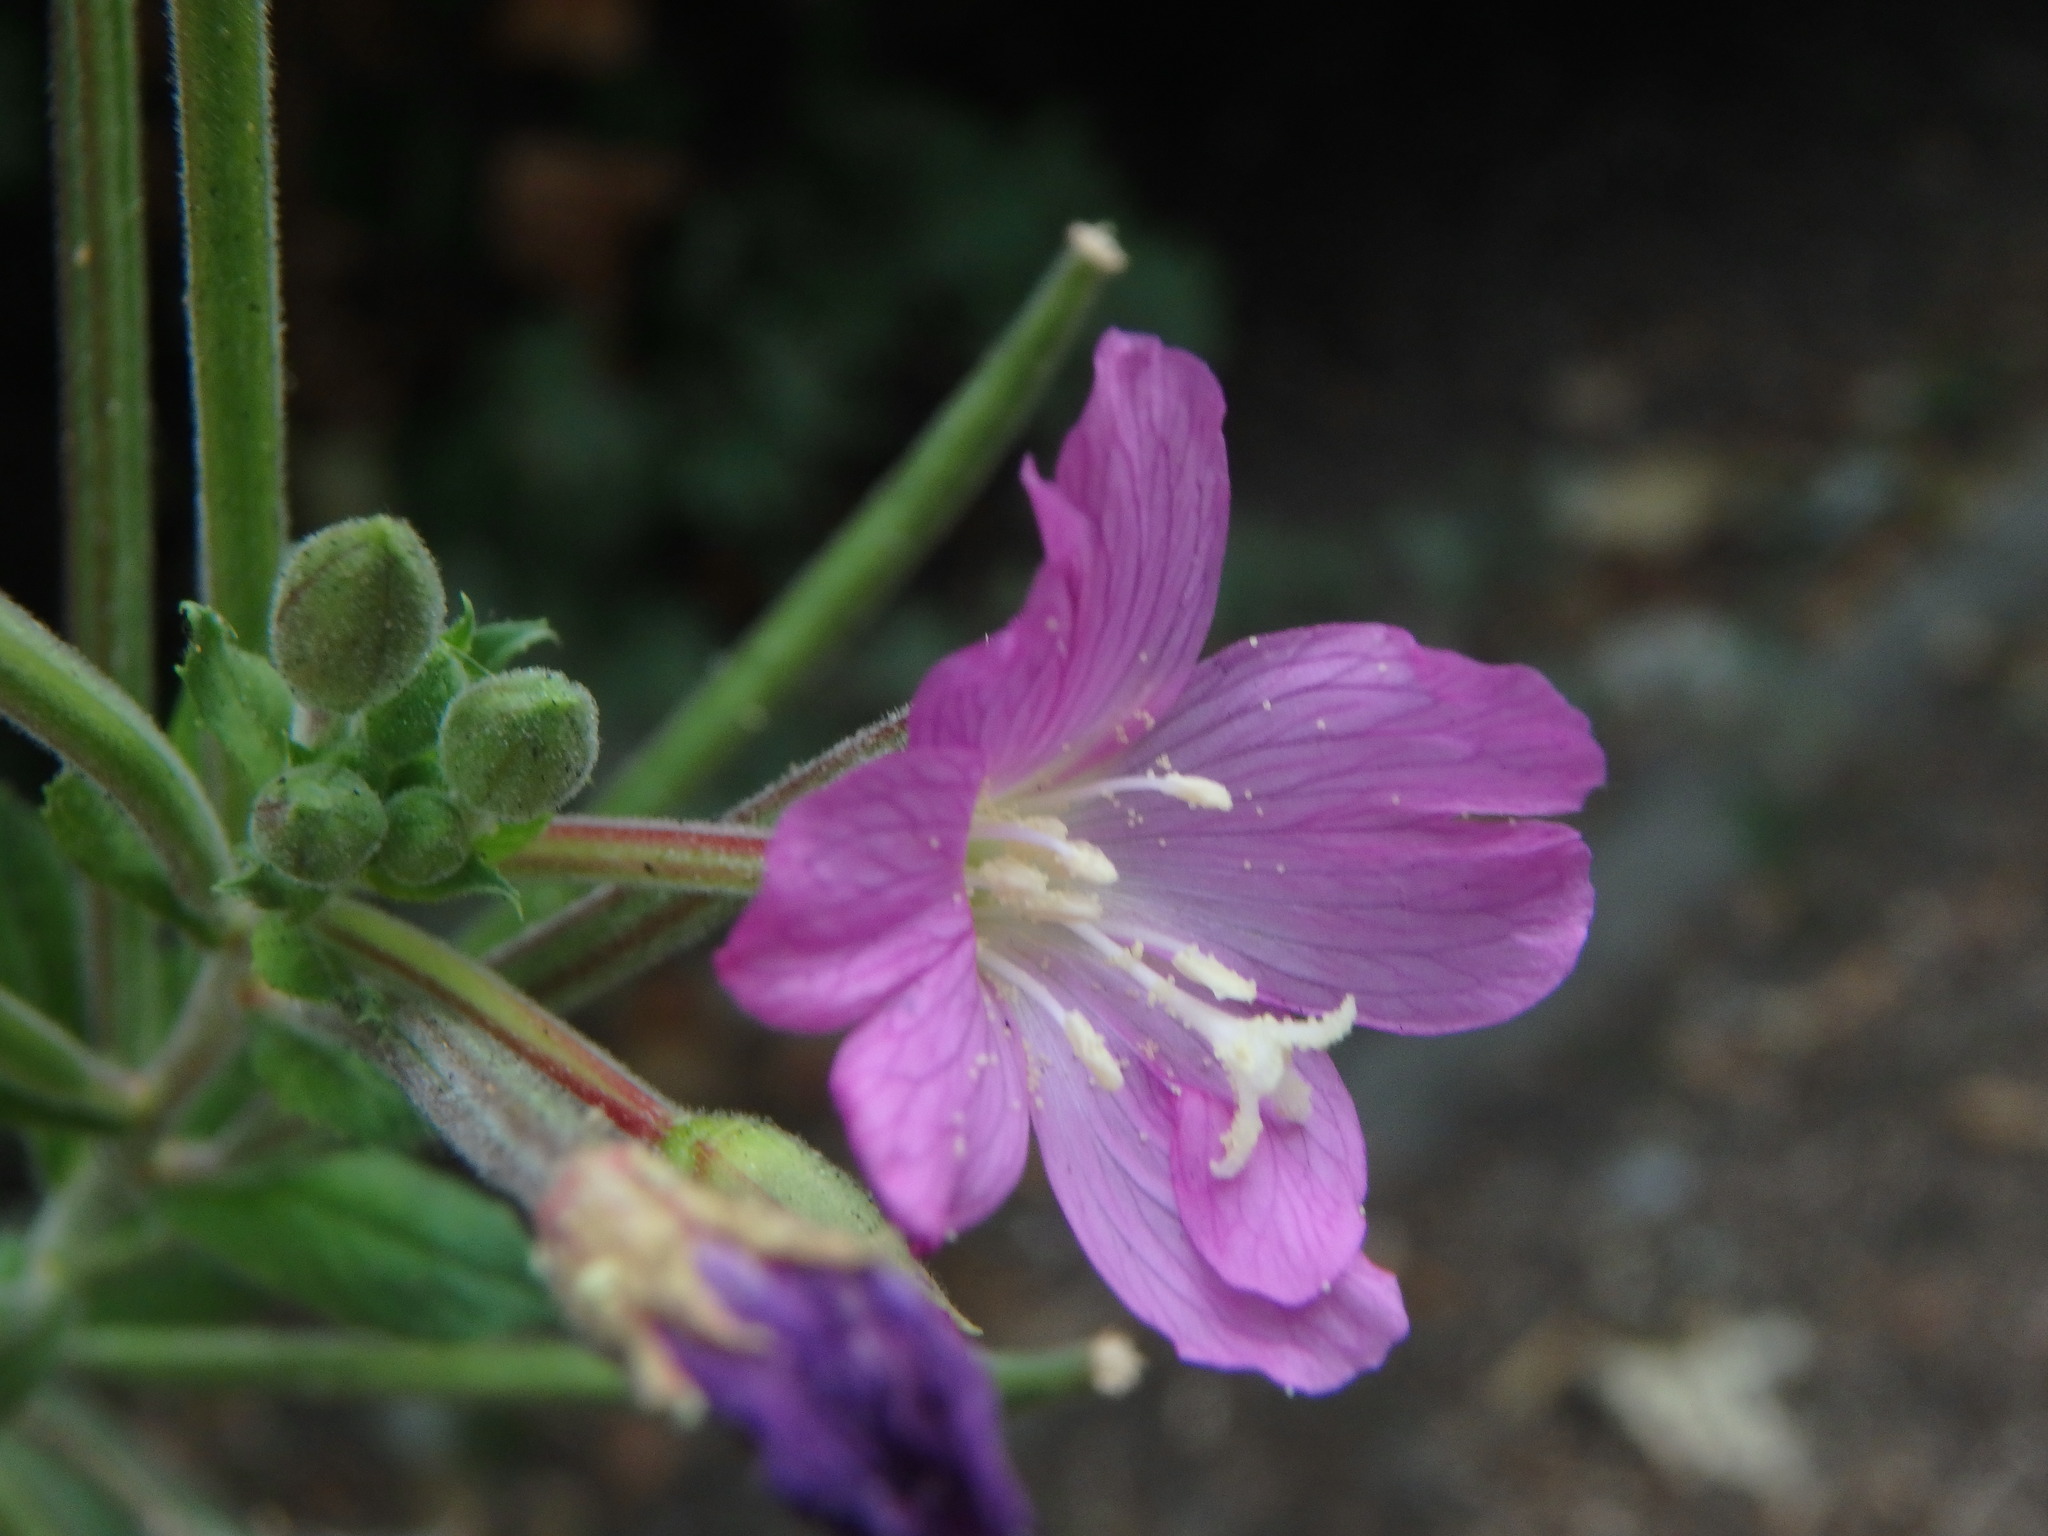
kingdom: Plantae
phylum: Tracheophyta
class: Magnoliopsida
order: Myrtales
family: Onagraceae
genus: Epilobium
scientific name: Epilobium hirsutum
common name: Great willowherb
